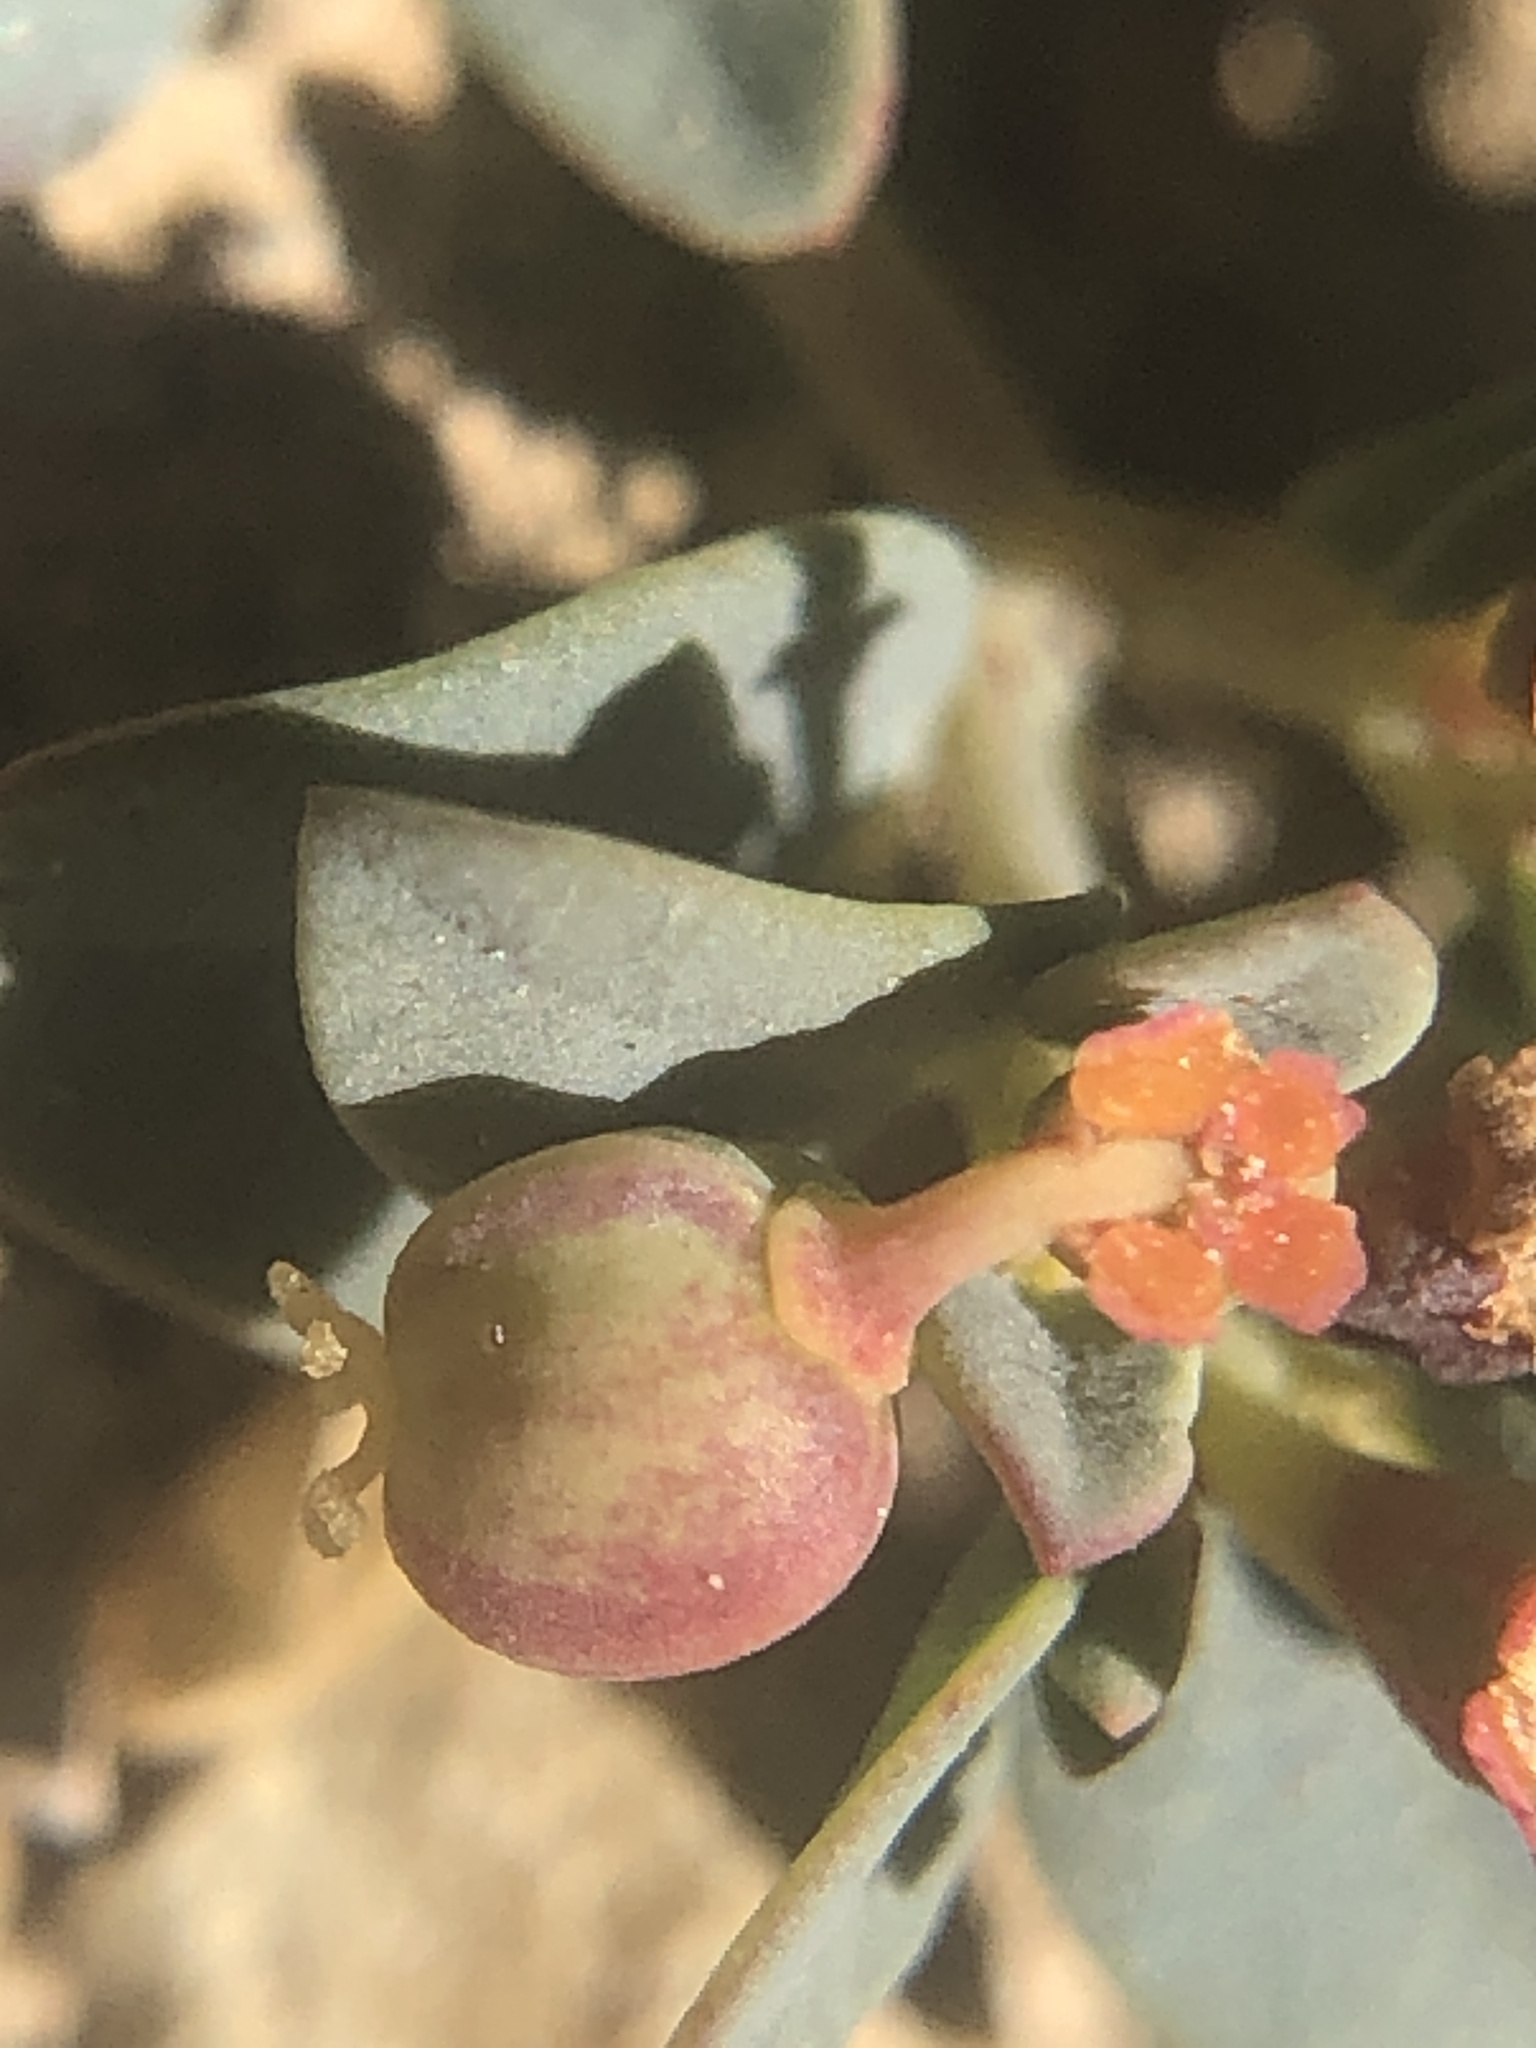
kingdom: Plantae
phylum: Tracheophyta
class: Magnoliopsida
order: Malpighiales
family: Euphorbiaceae
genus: Euphorbia
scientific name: Euphorbia fendleri
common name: Fendler's euphorbia
